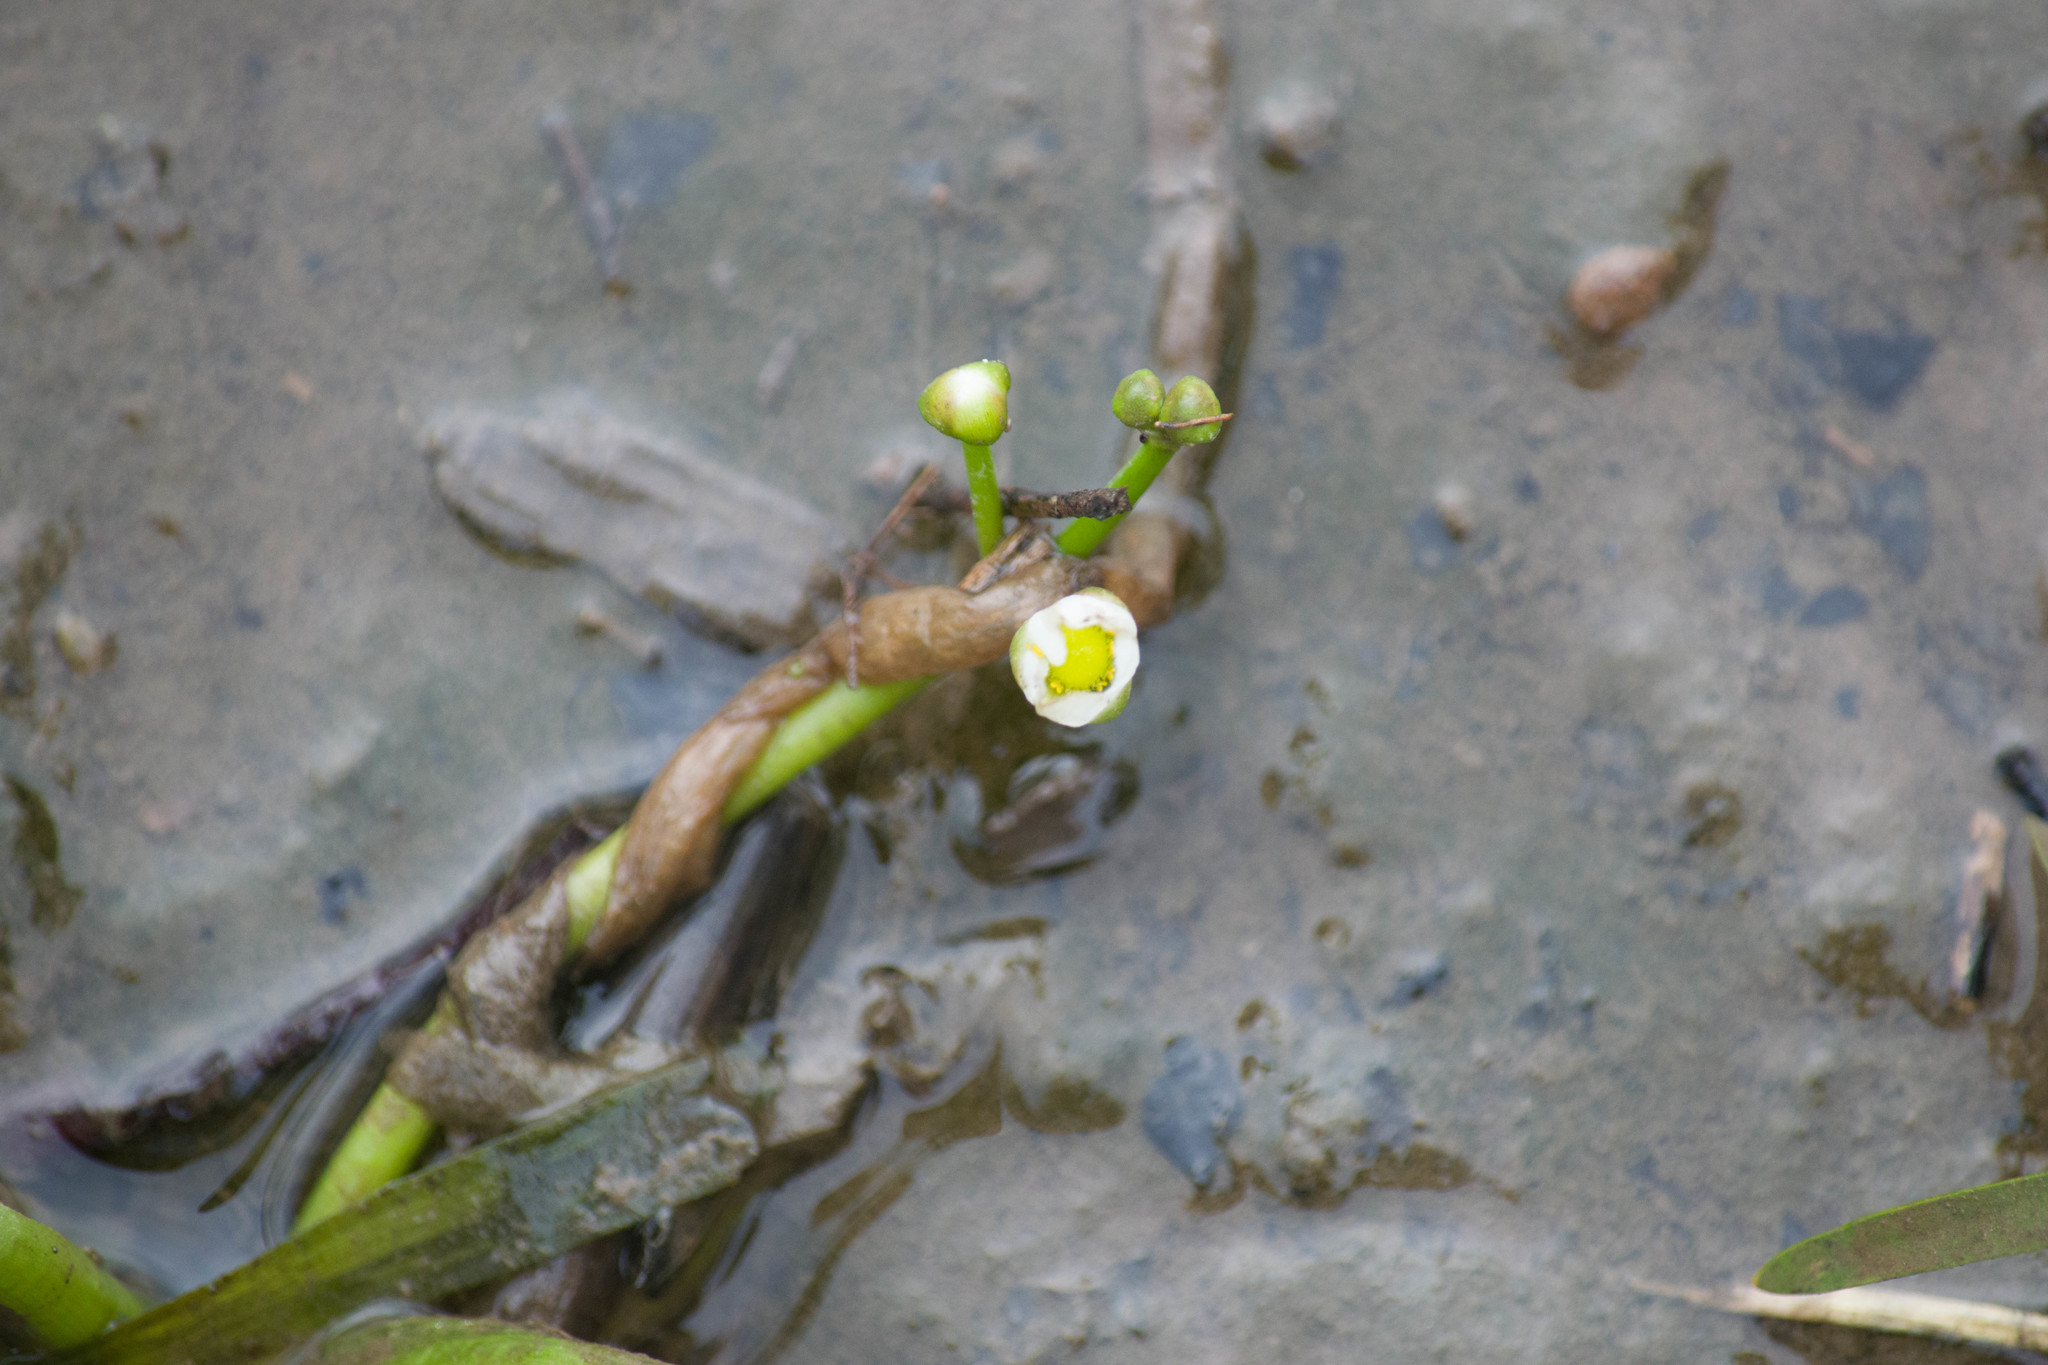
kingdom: Plantae
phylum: Tracheophyta
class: Liliopsida
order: Alismatales
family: Alismataceae
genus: Sagittaria
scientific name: Sagittaria calycina
